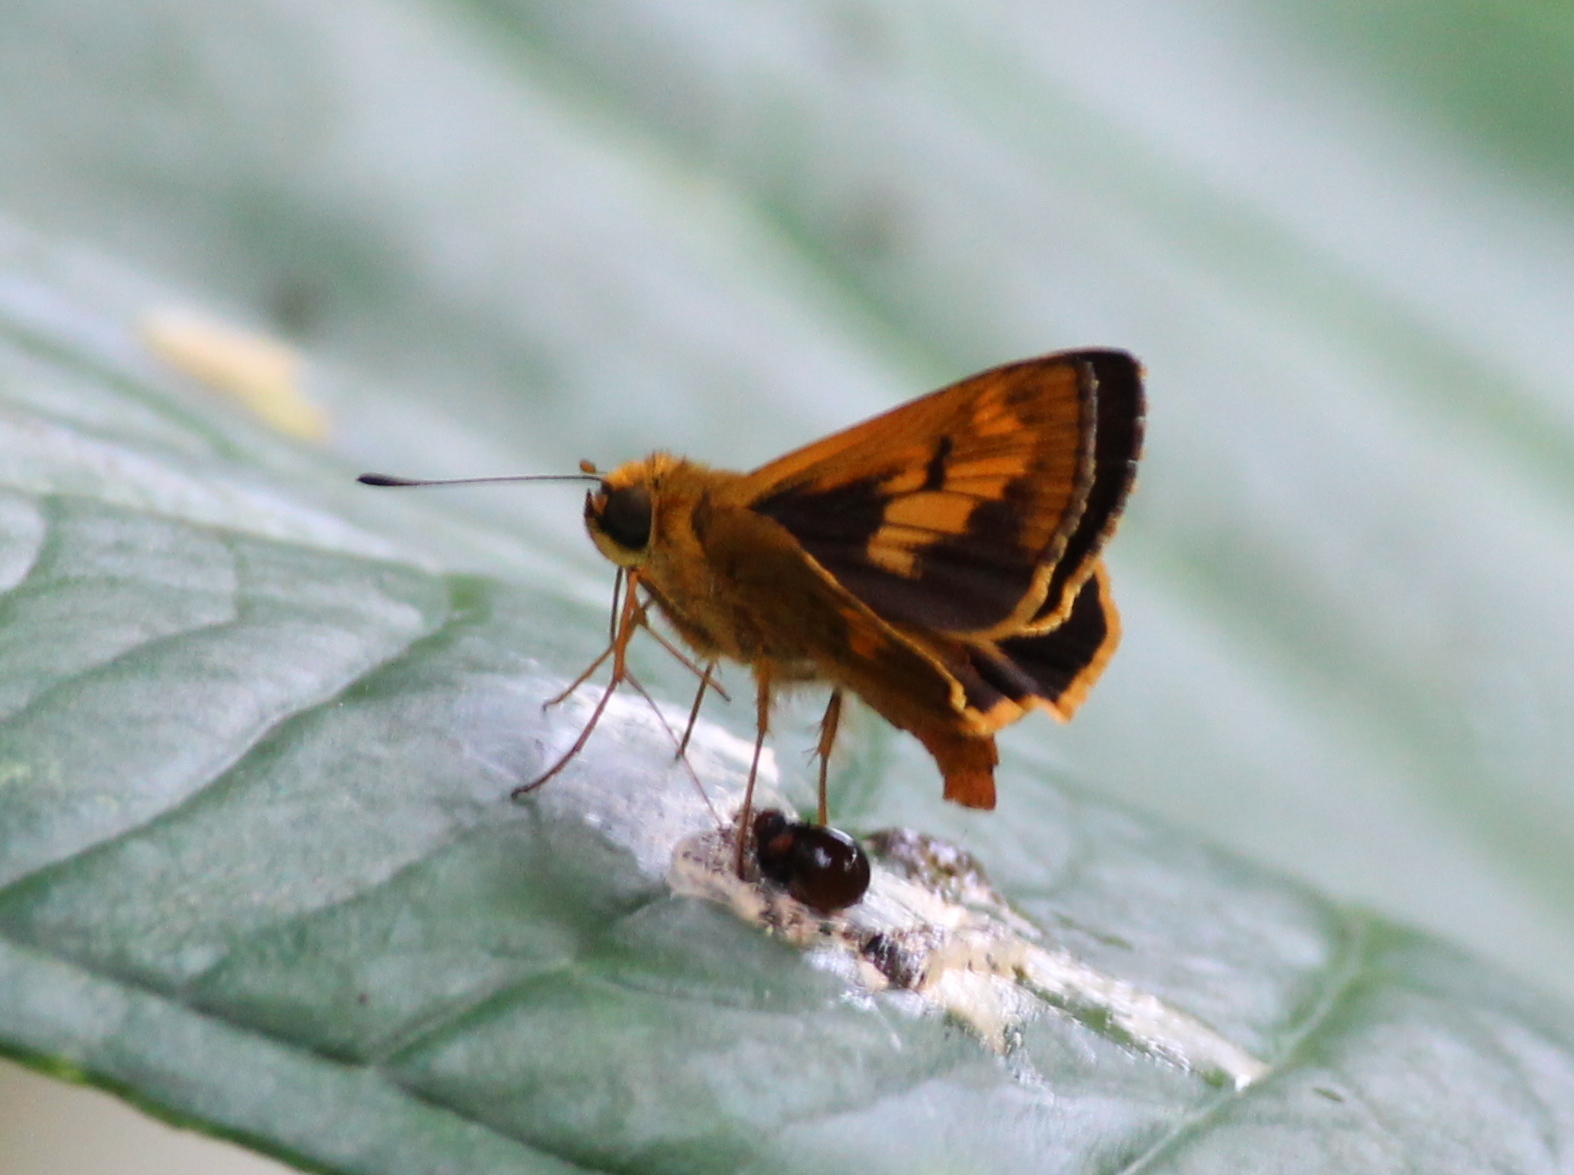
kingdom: Animalia
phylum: Arthropoda
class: Insecta
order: Lepidoptera
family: Hesperiidae
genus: Oriens
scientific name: Oriens goloides
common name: Smaller dartlet
